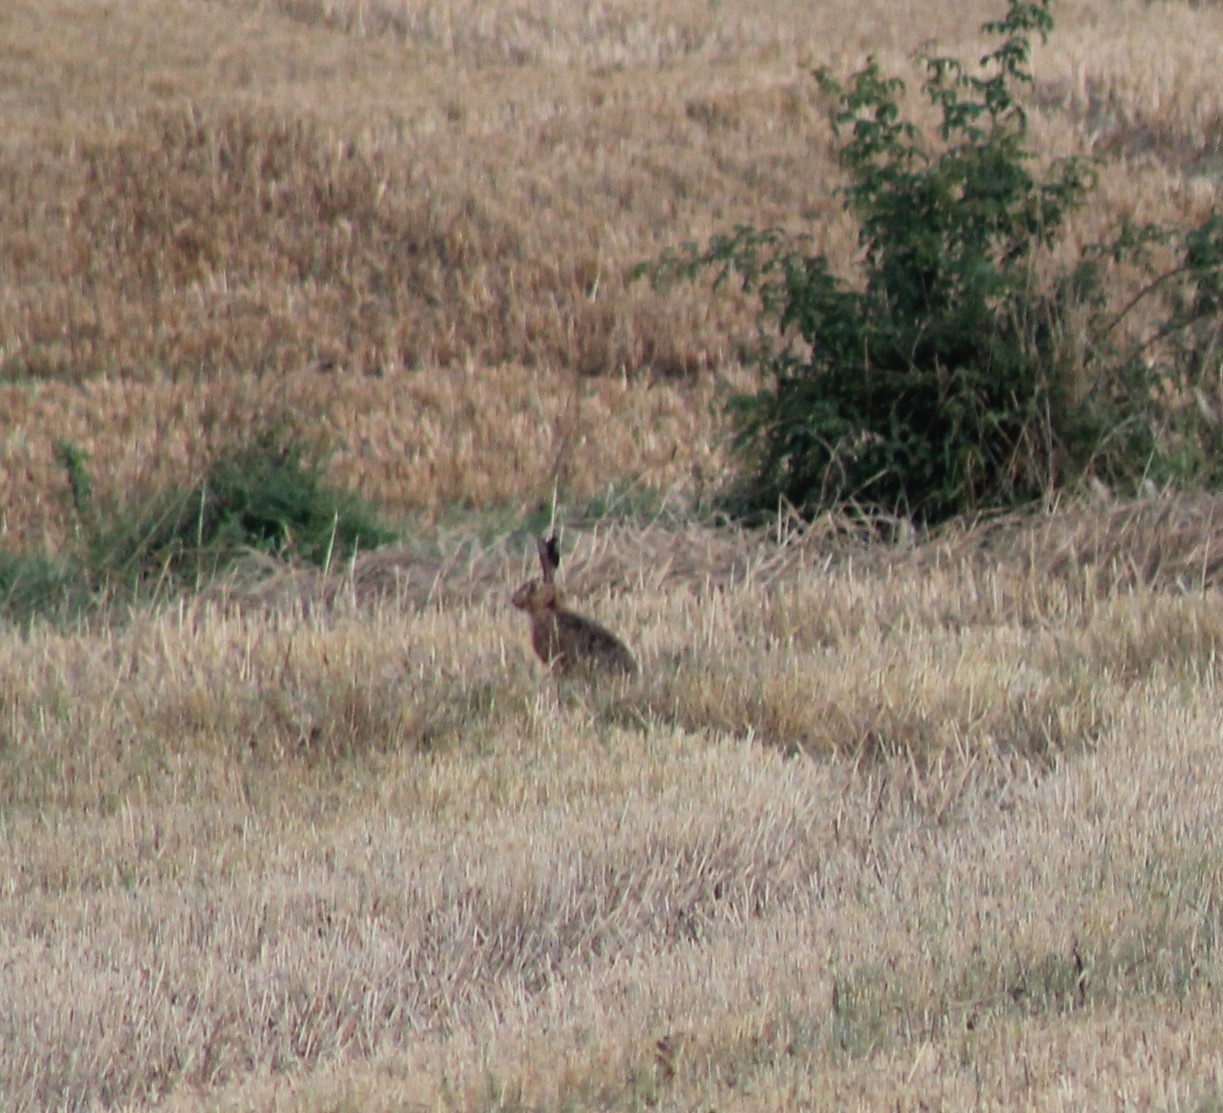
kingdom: Animalia
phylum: Chordata
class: Mammalia
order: Lagomorpha
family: Leporidae
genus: Lepus
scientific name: Lepus europaeus
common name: European hare
